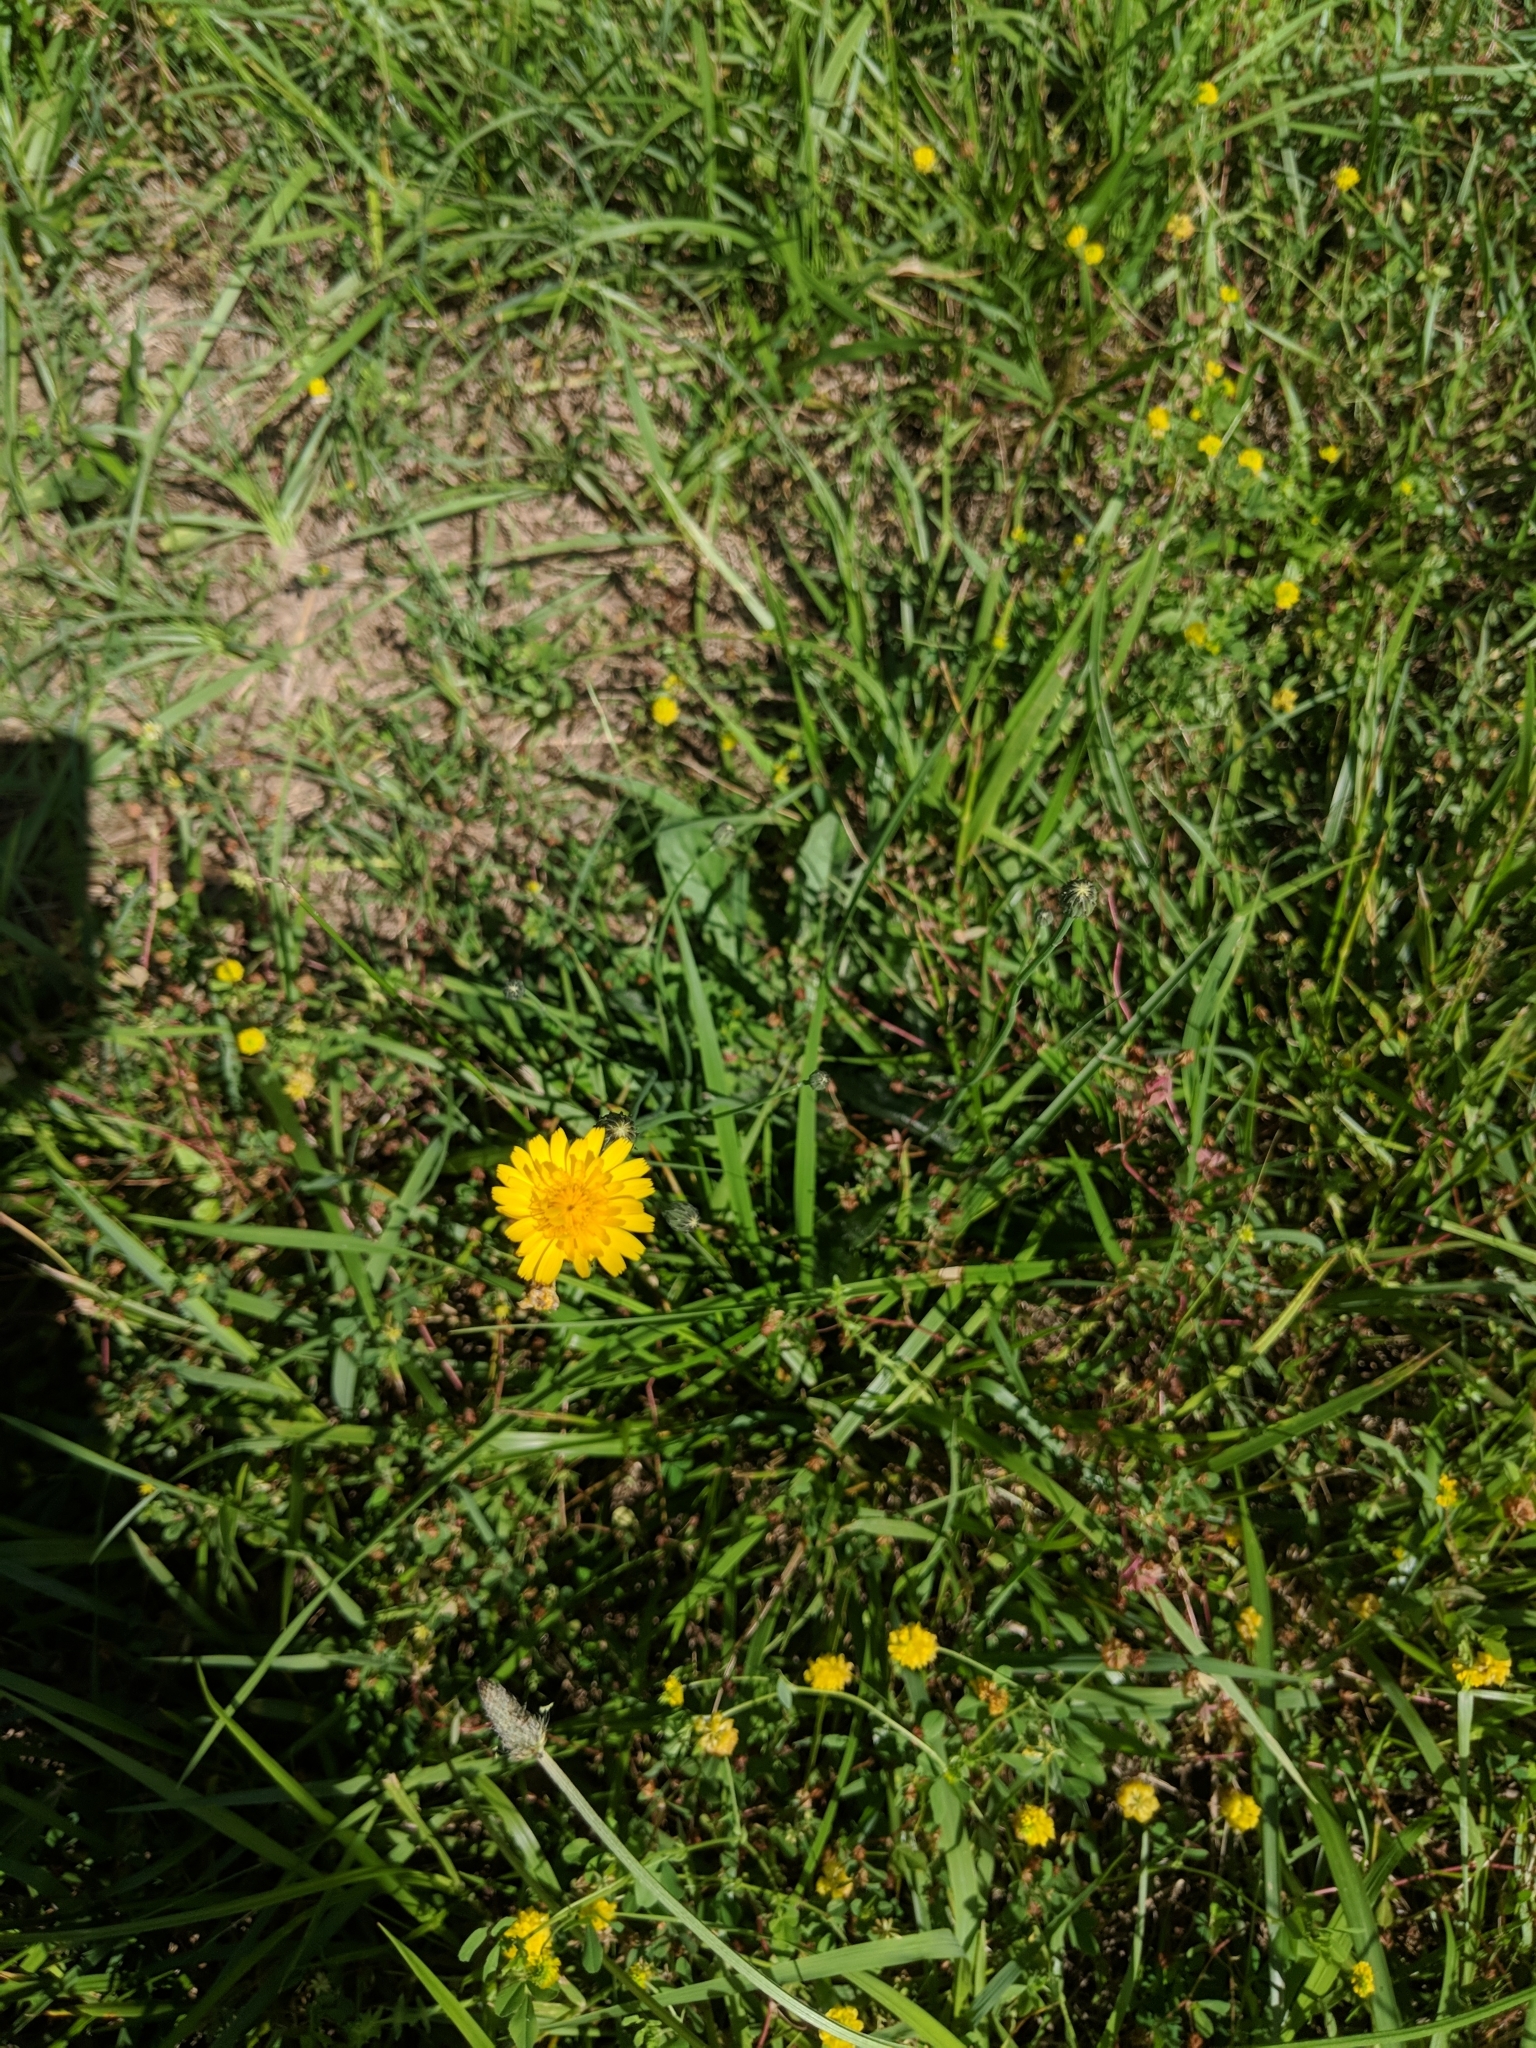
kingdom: Plantae
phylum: Tracheophyta
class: Magnoliopsida
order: Asterales
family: Asteraceae
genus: Hypochaeris
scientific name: Hypochaeris radicata
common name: Flatweed
